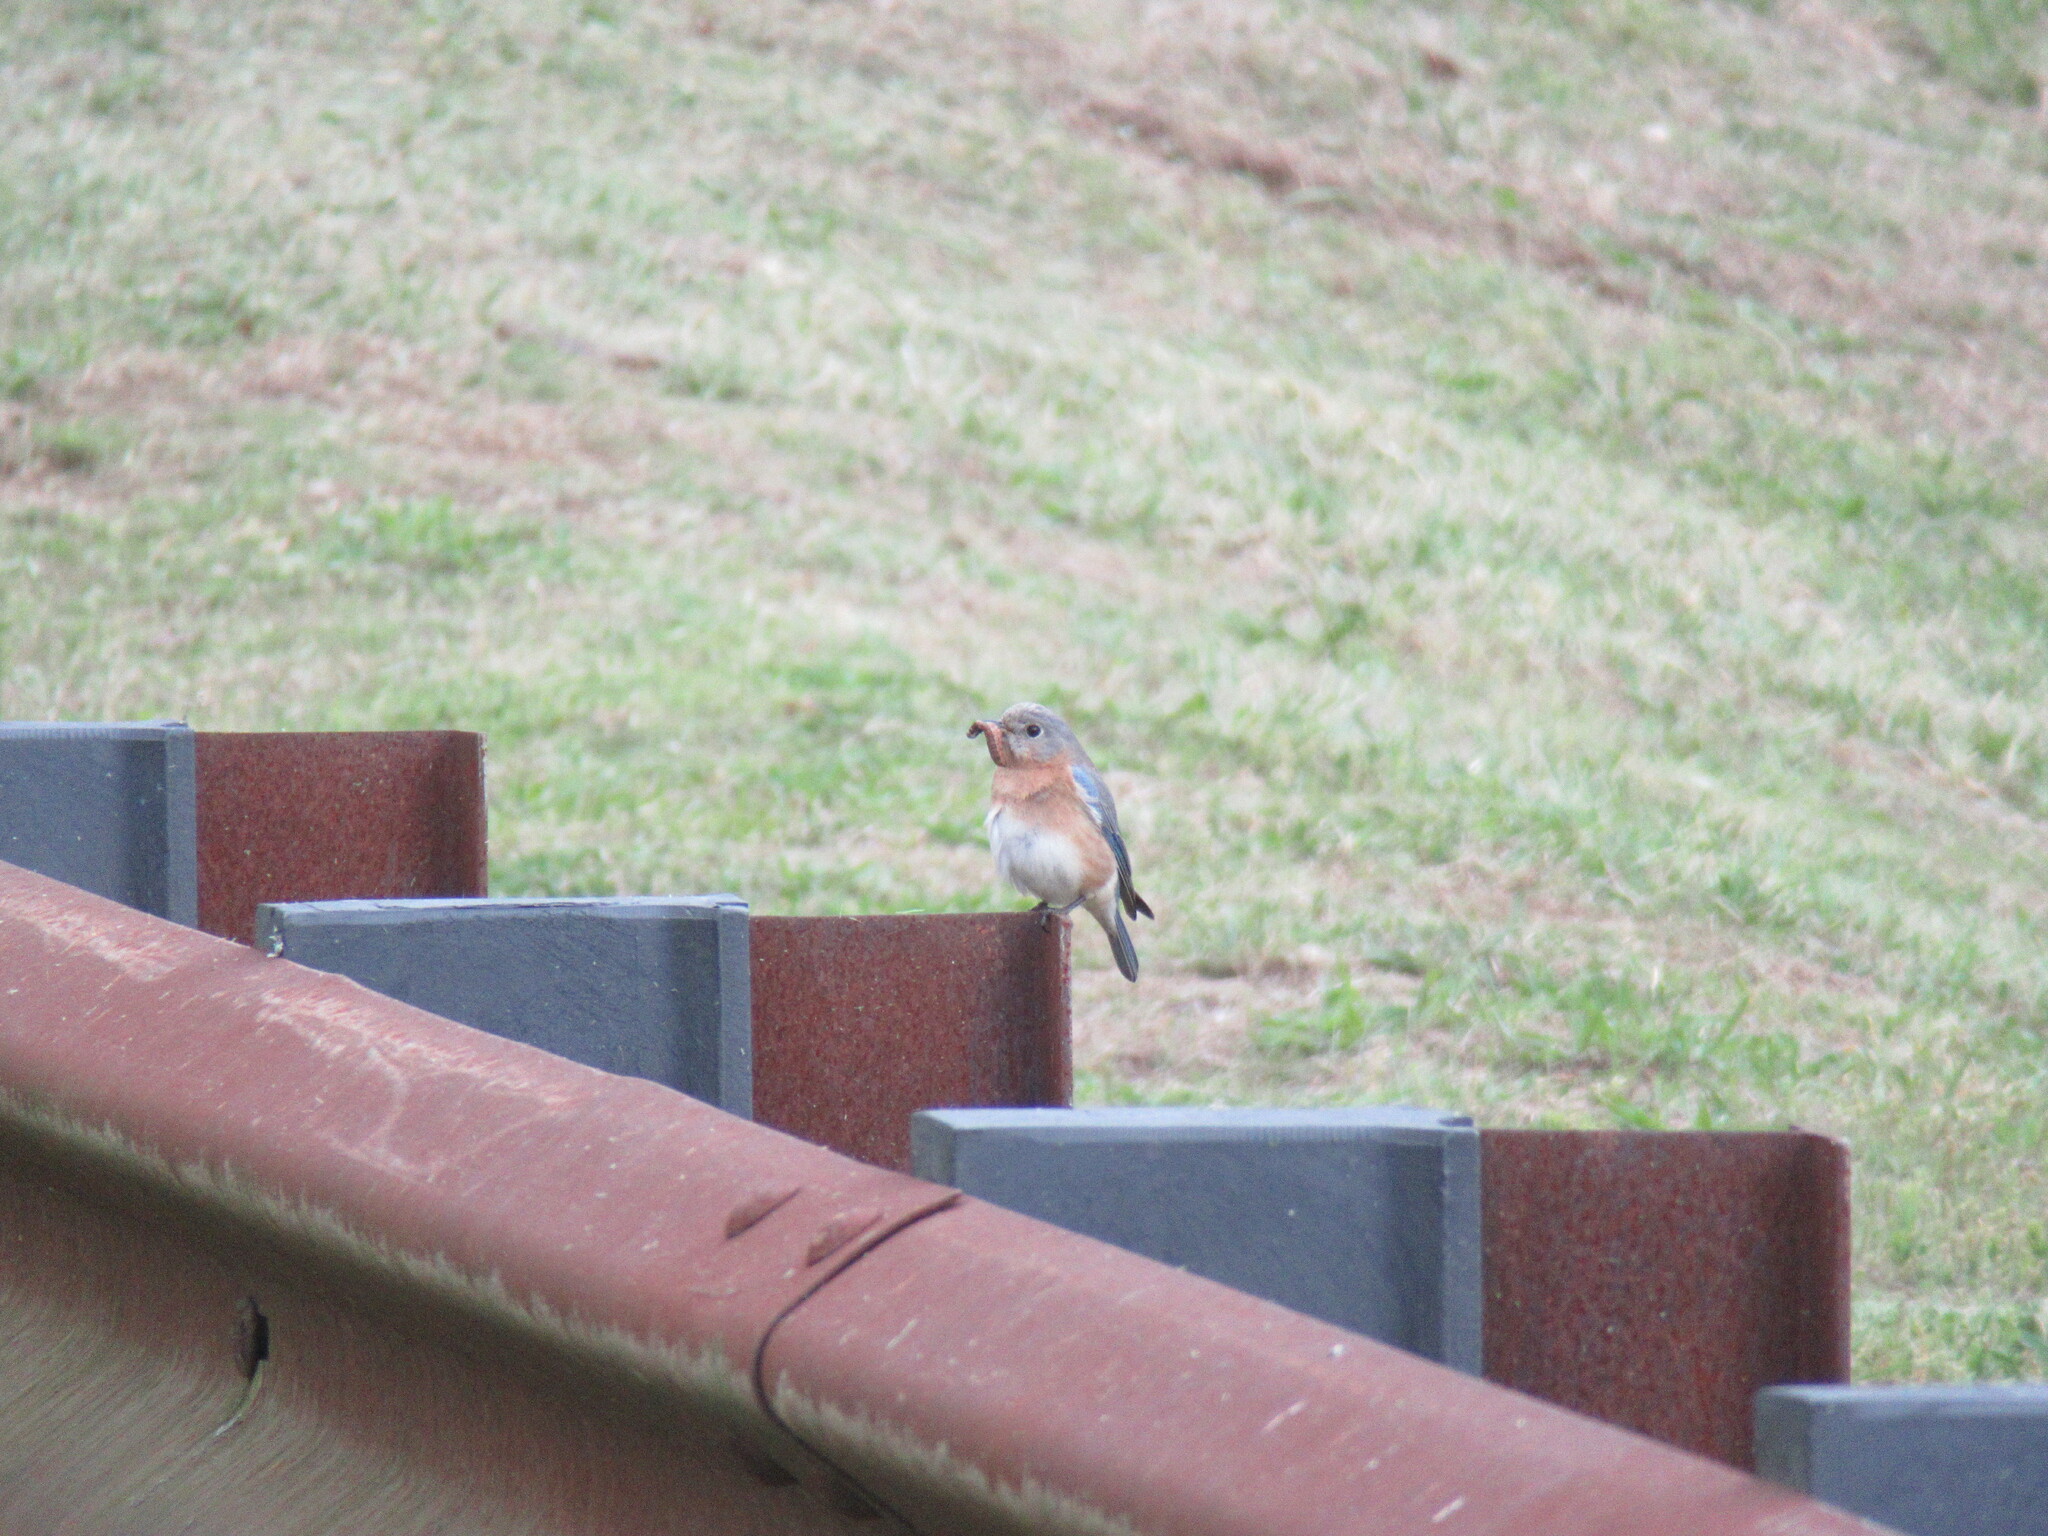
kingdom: Animalia
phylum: Chordata
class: Aves
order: Passeriformes
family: Turdidae
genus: Sialia
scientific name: Sialia sialis
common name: Eastern bluebird
